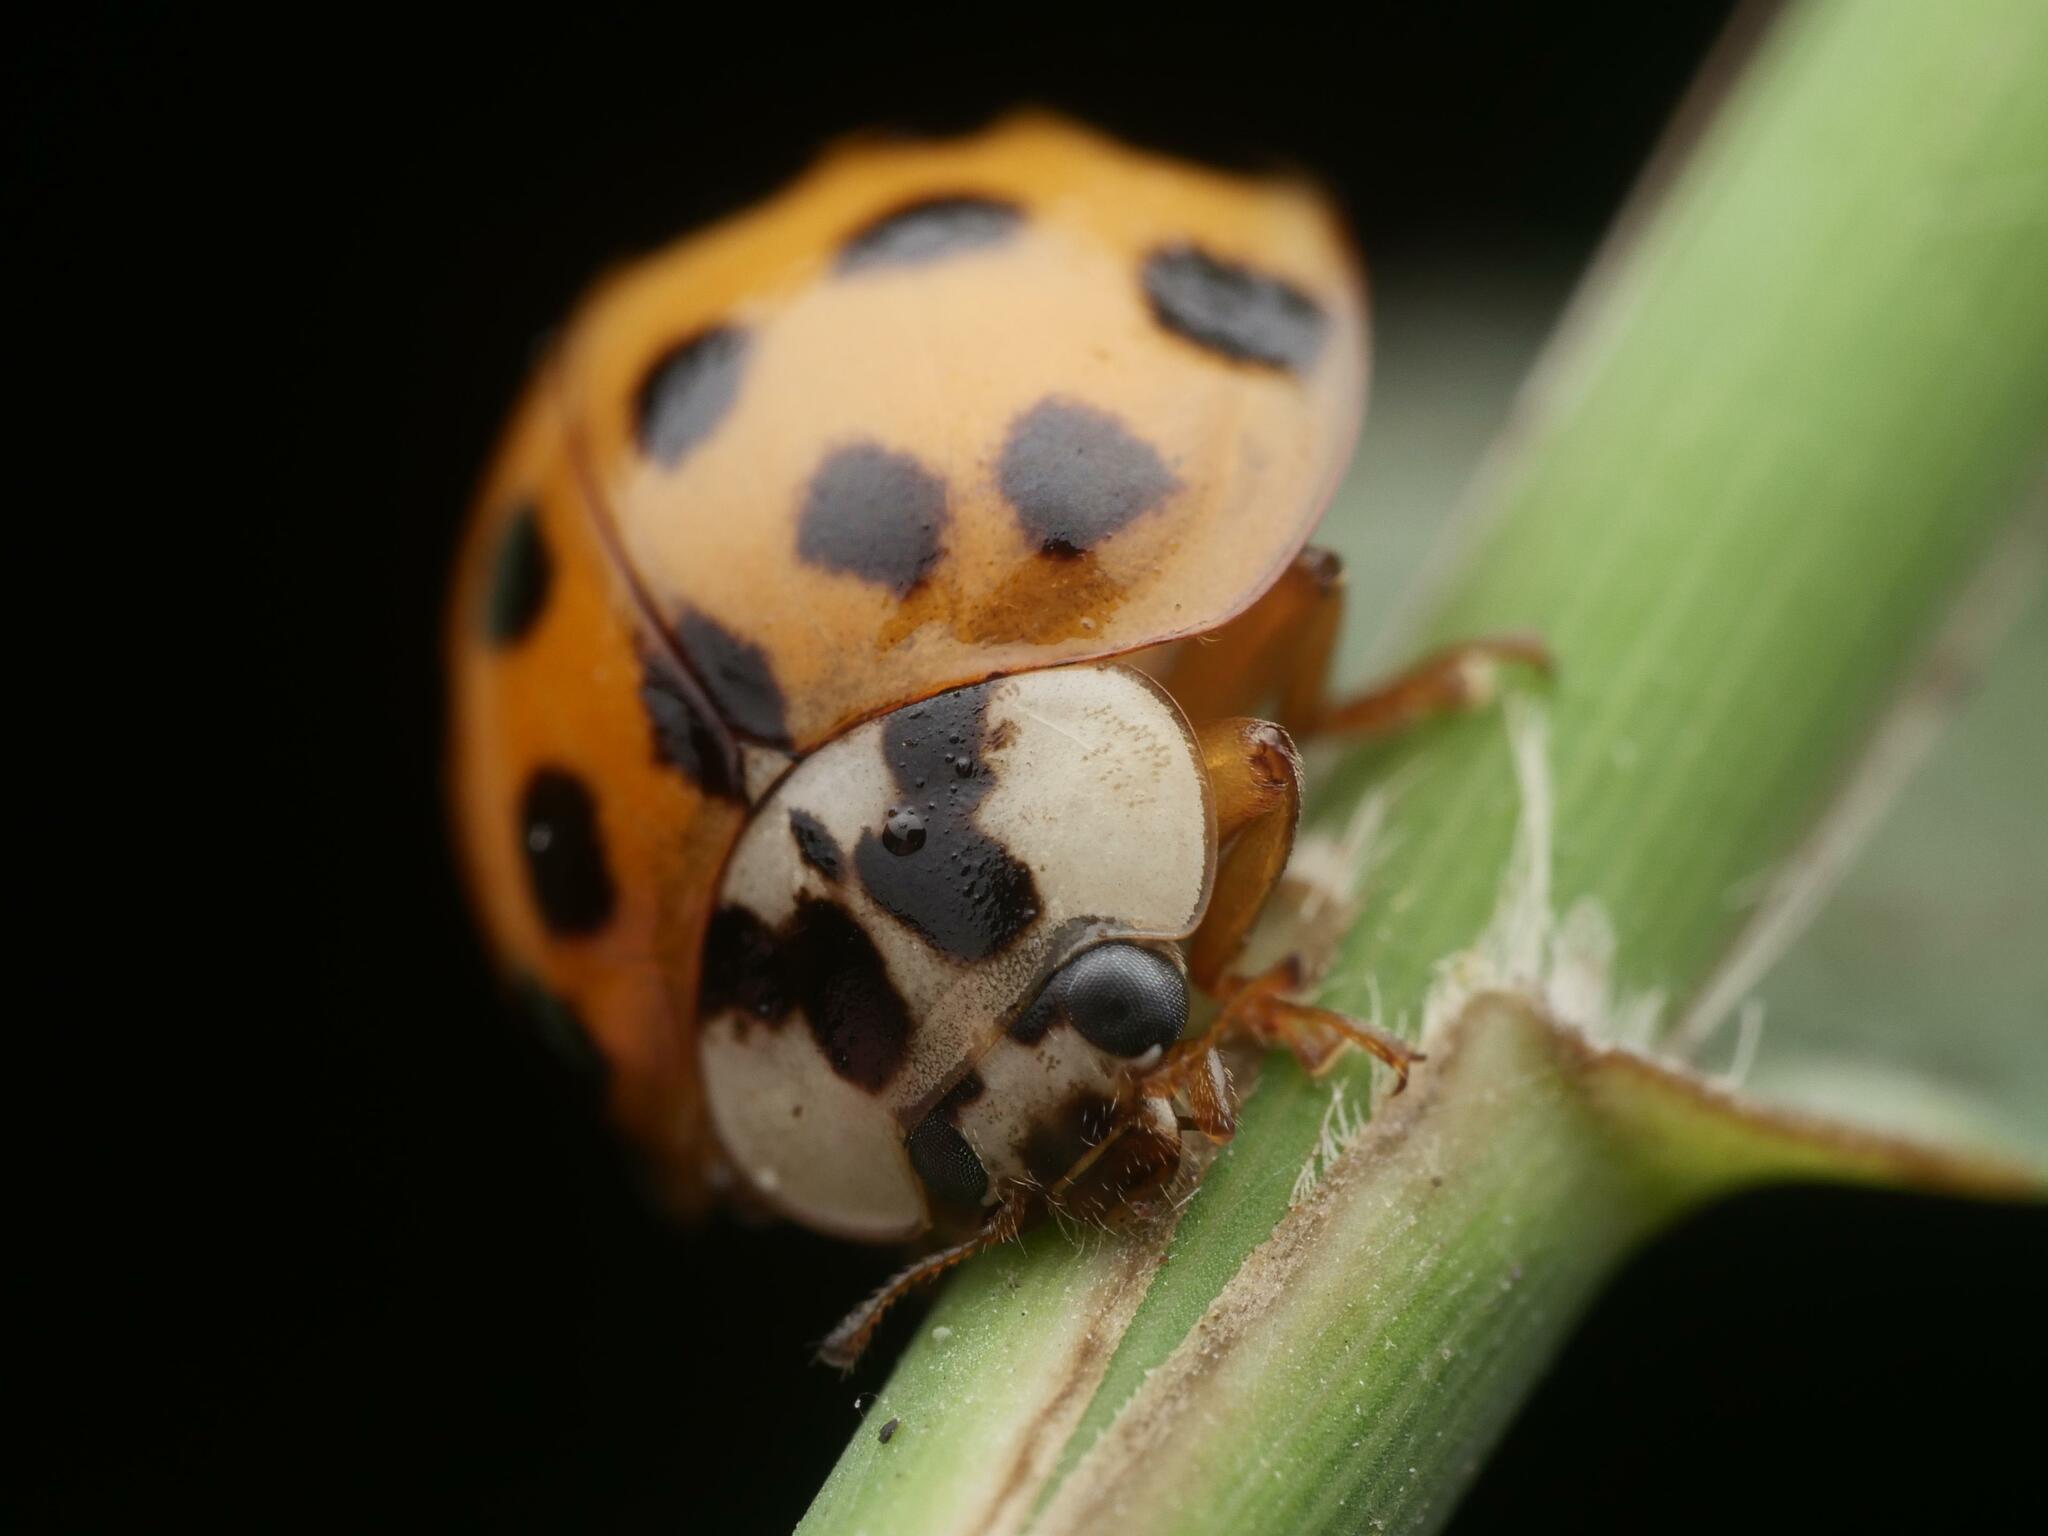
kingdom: Animalia
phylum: Arthropoda
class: Insecta
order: Coleoptera
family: Coccinellidae
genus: Harmonia
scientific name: Harmonia axyridis
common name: Harlequin ladybird
